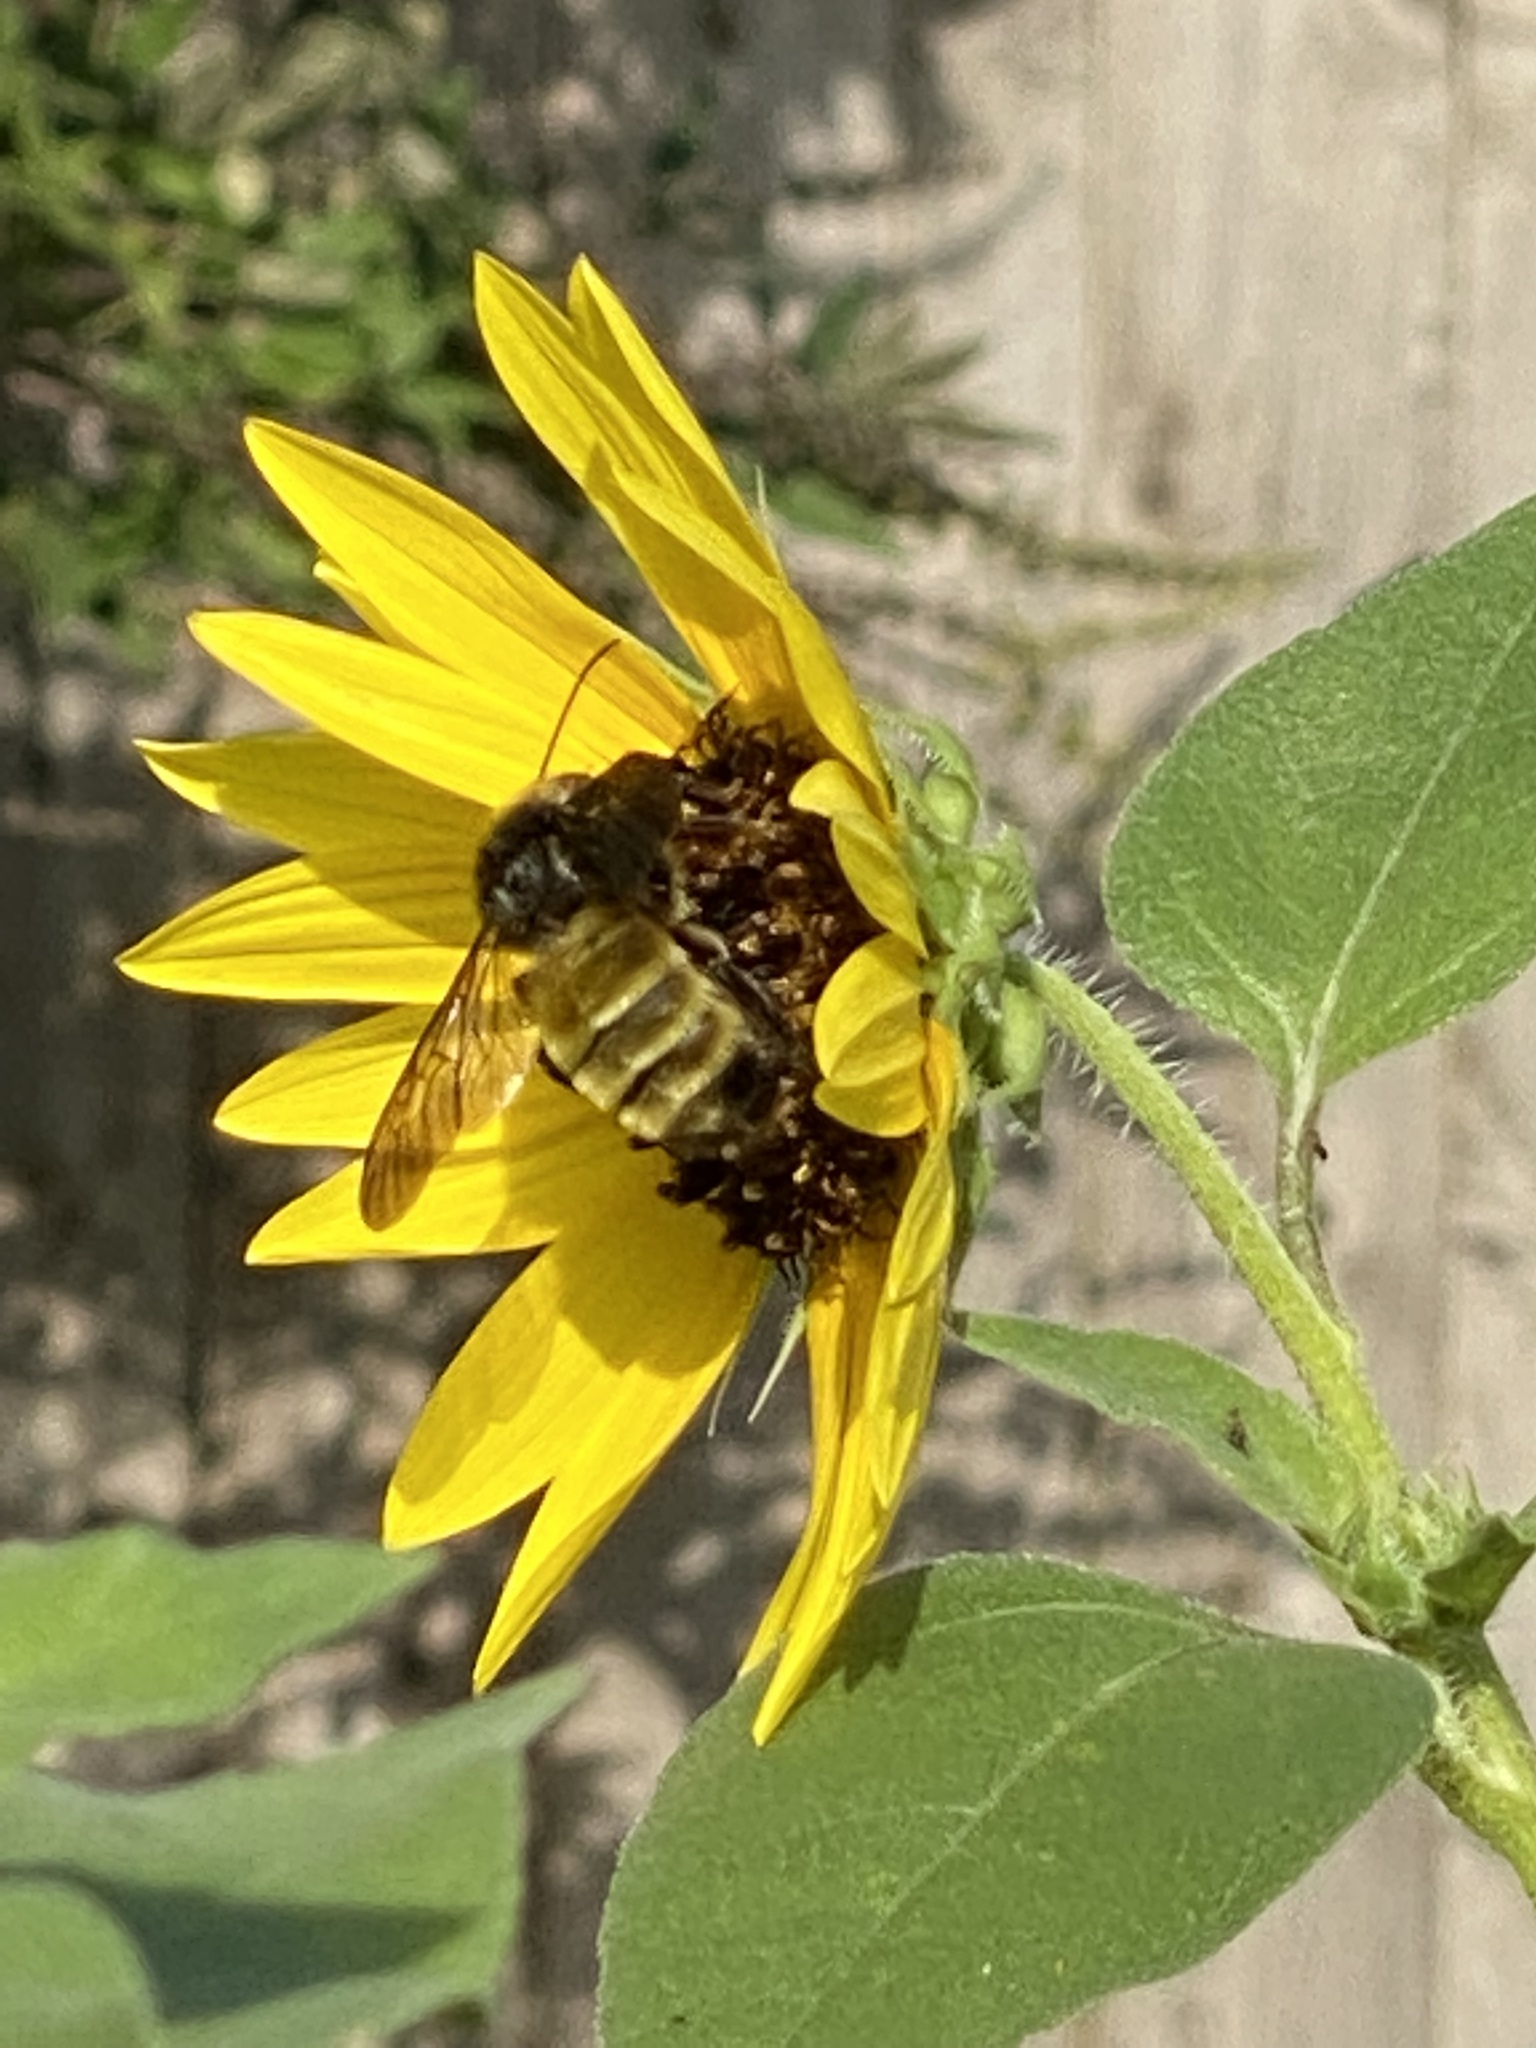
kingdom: Animalia
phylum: Arthropoda
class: Insecta
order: Hymenoptera
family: Apidae
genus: Bombus
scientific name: Bombus pensylvanicus
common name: Bumble bee
